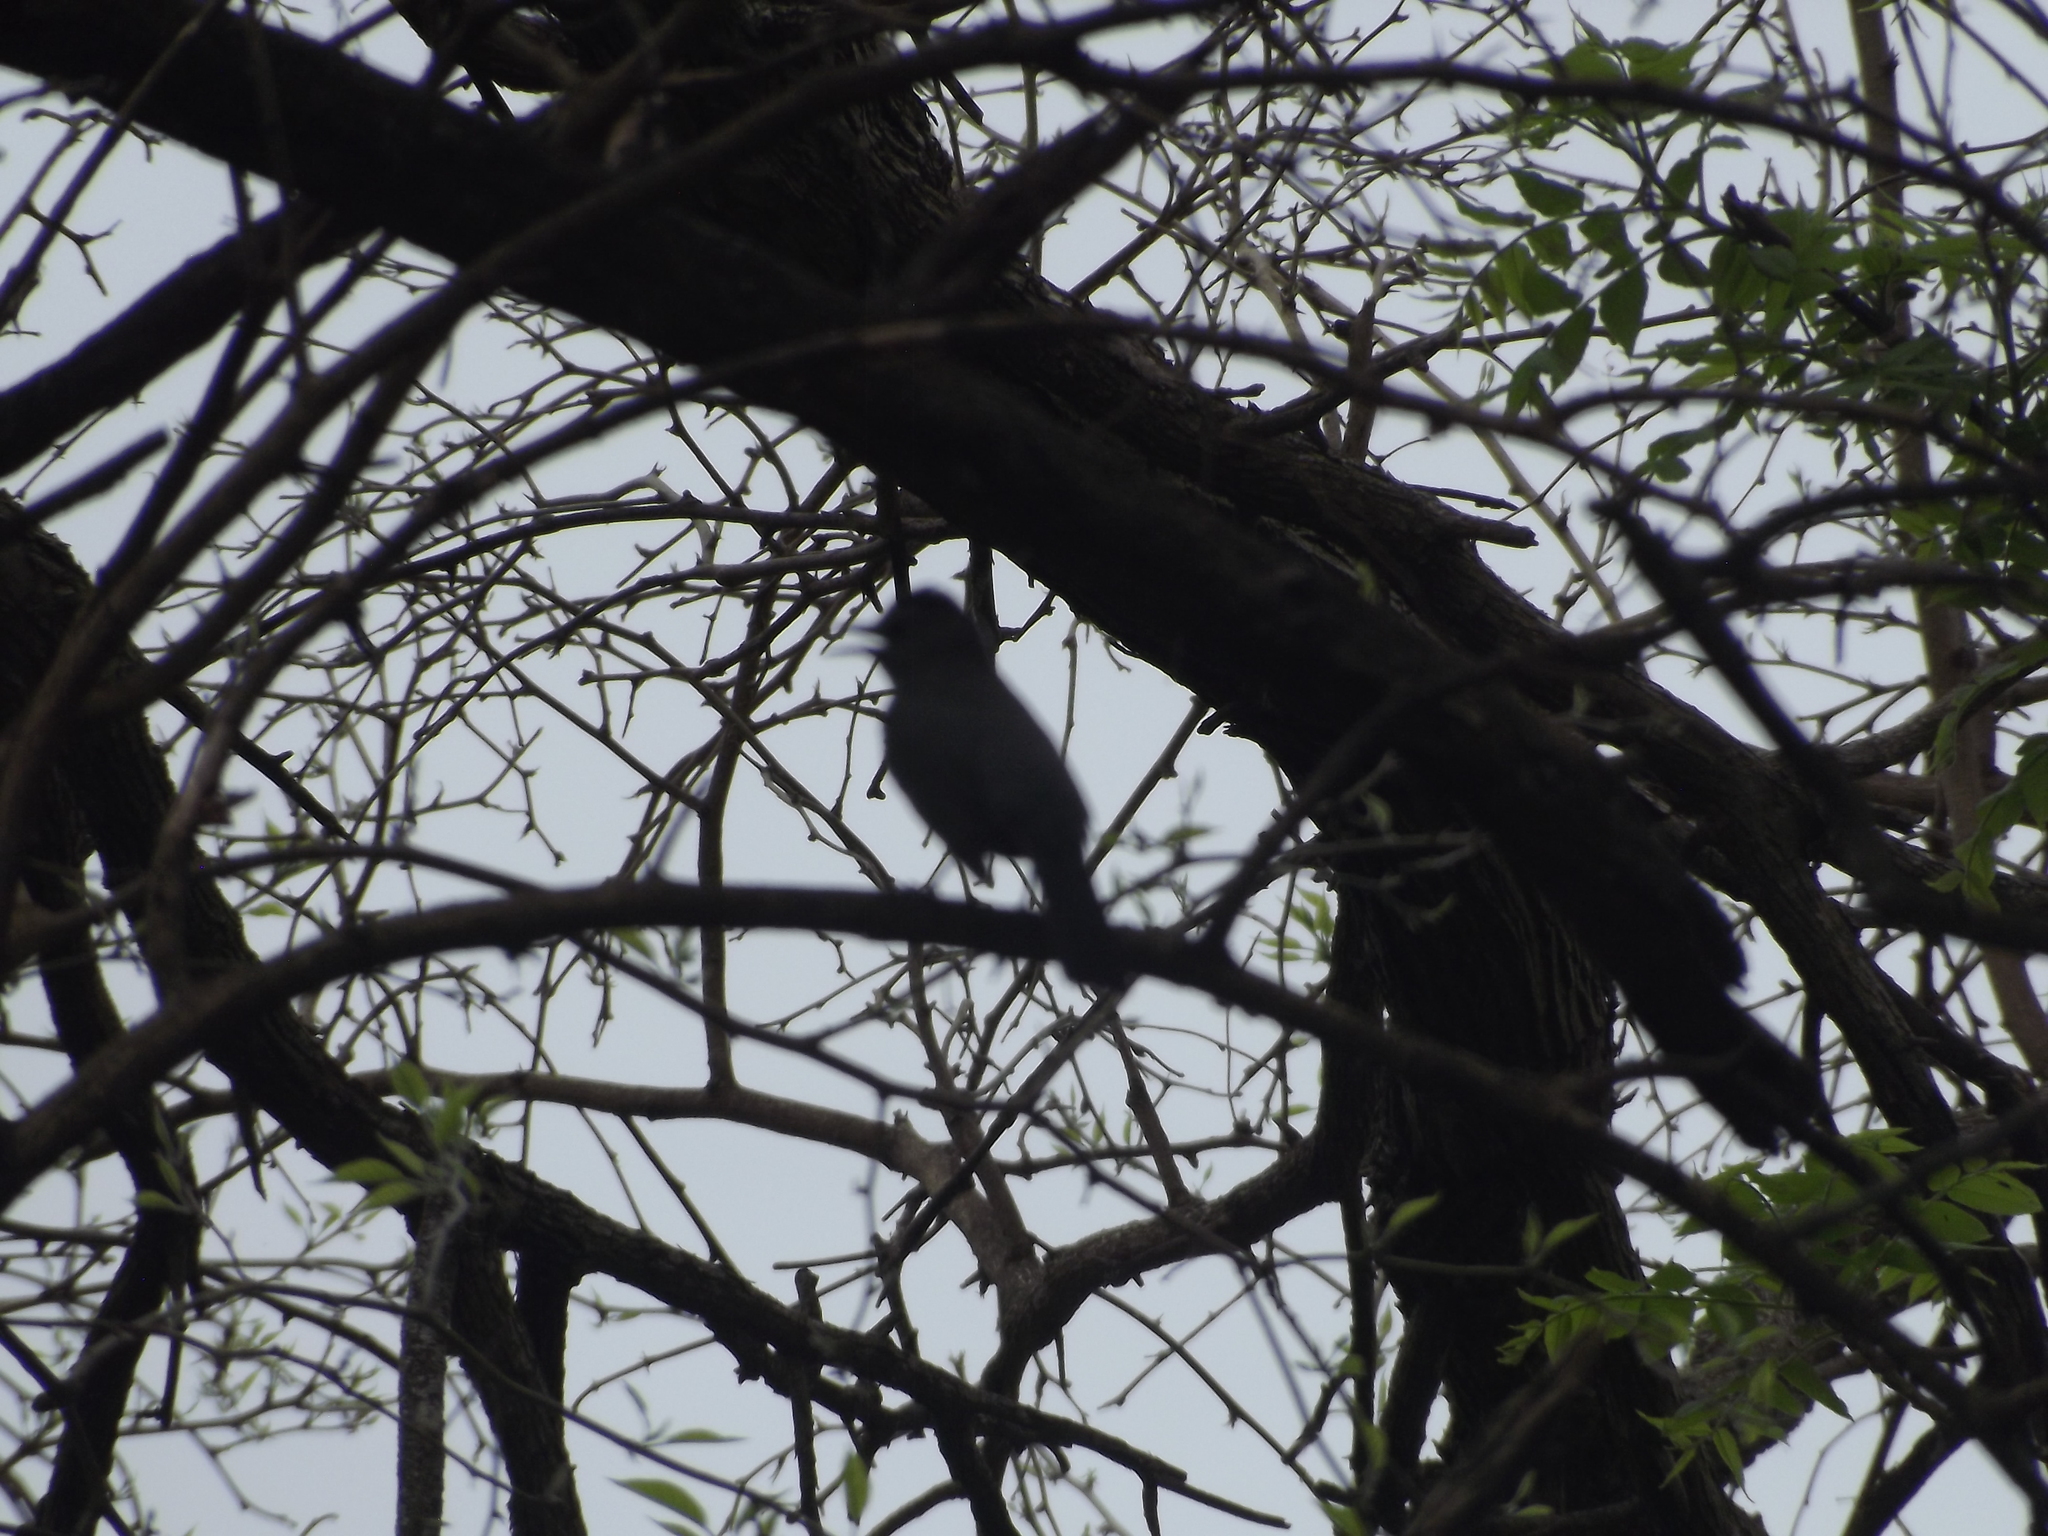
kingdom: Animalia
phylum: Chordata
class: Aves
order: Passeriformes
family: Mimidae
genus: Dumetella
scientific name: Dumetella carolinensis
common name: Gray catbird
